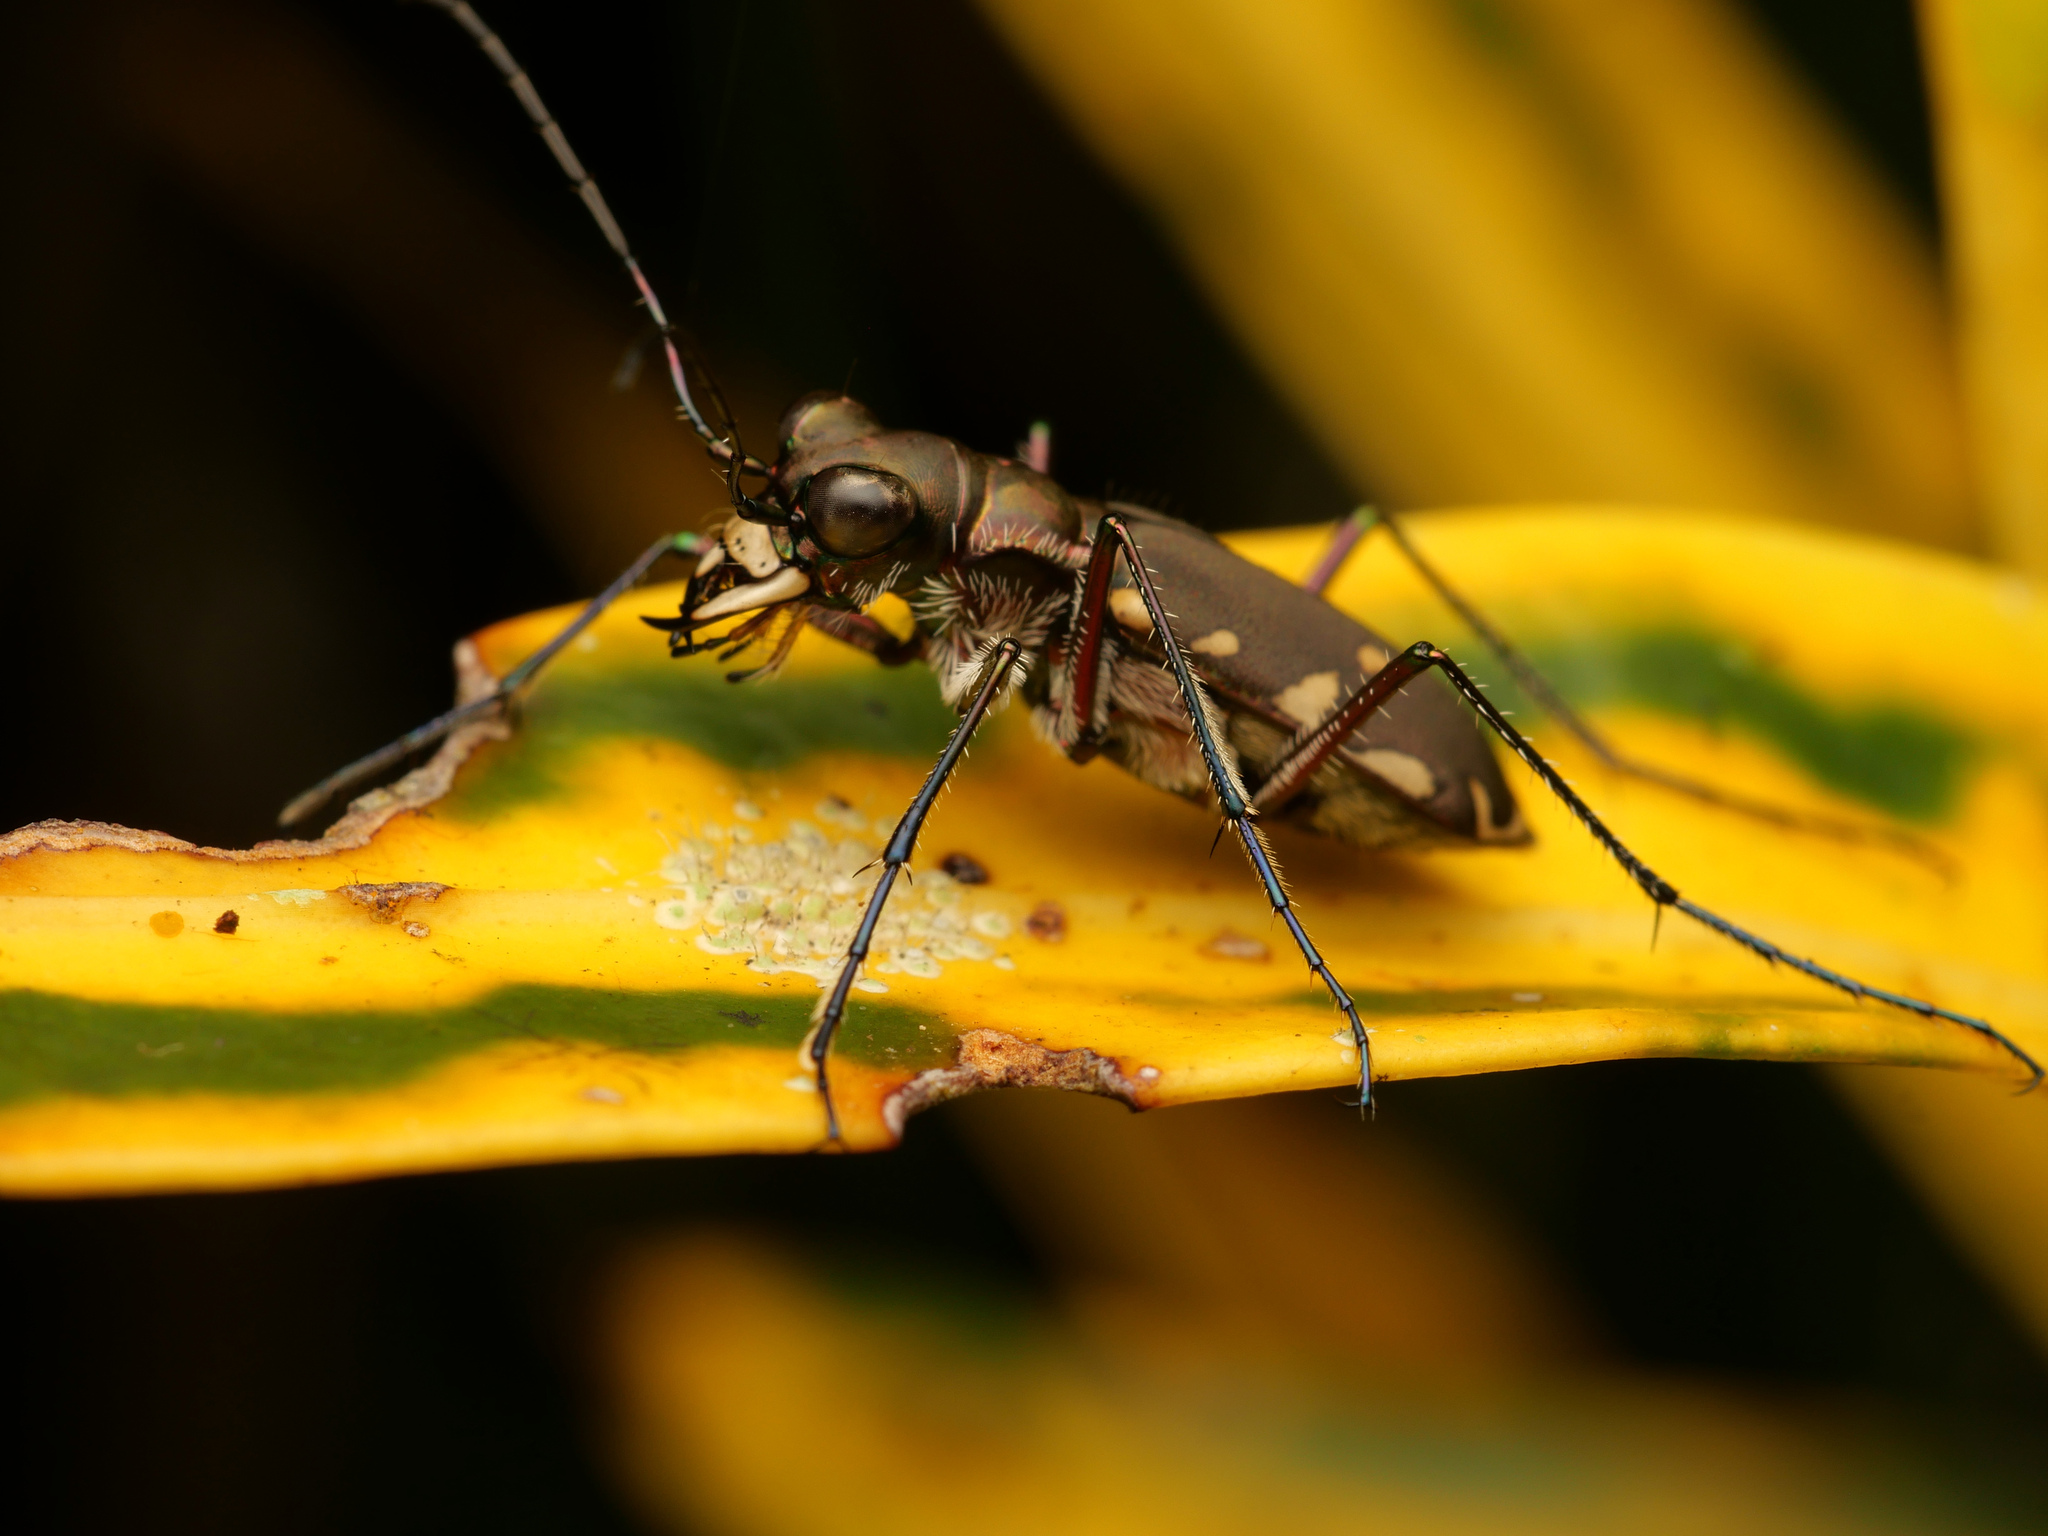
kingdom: Animalia
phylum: Arthropoda
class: Insecta
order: Coleoptera
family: Carabidae
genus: Cicindela
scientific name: Cicindela durvillei
